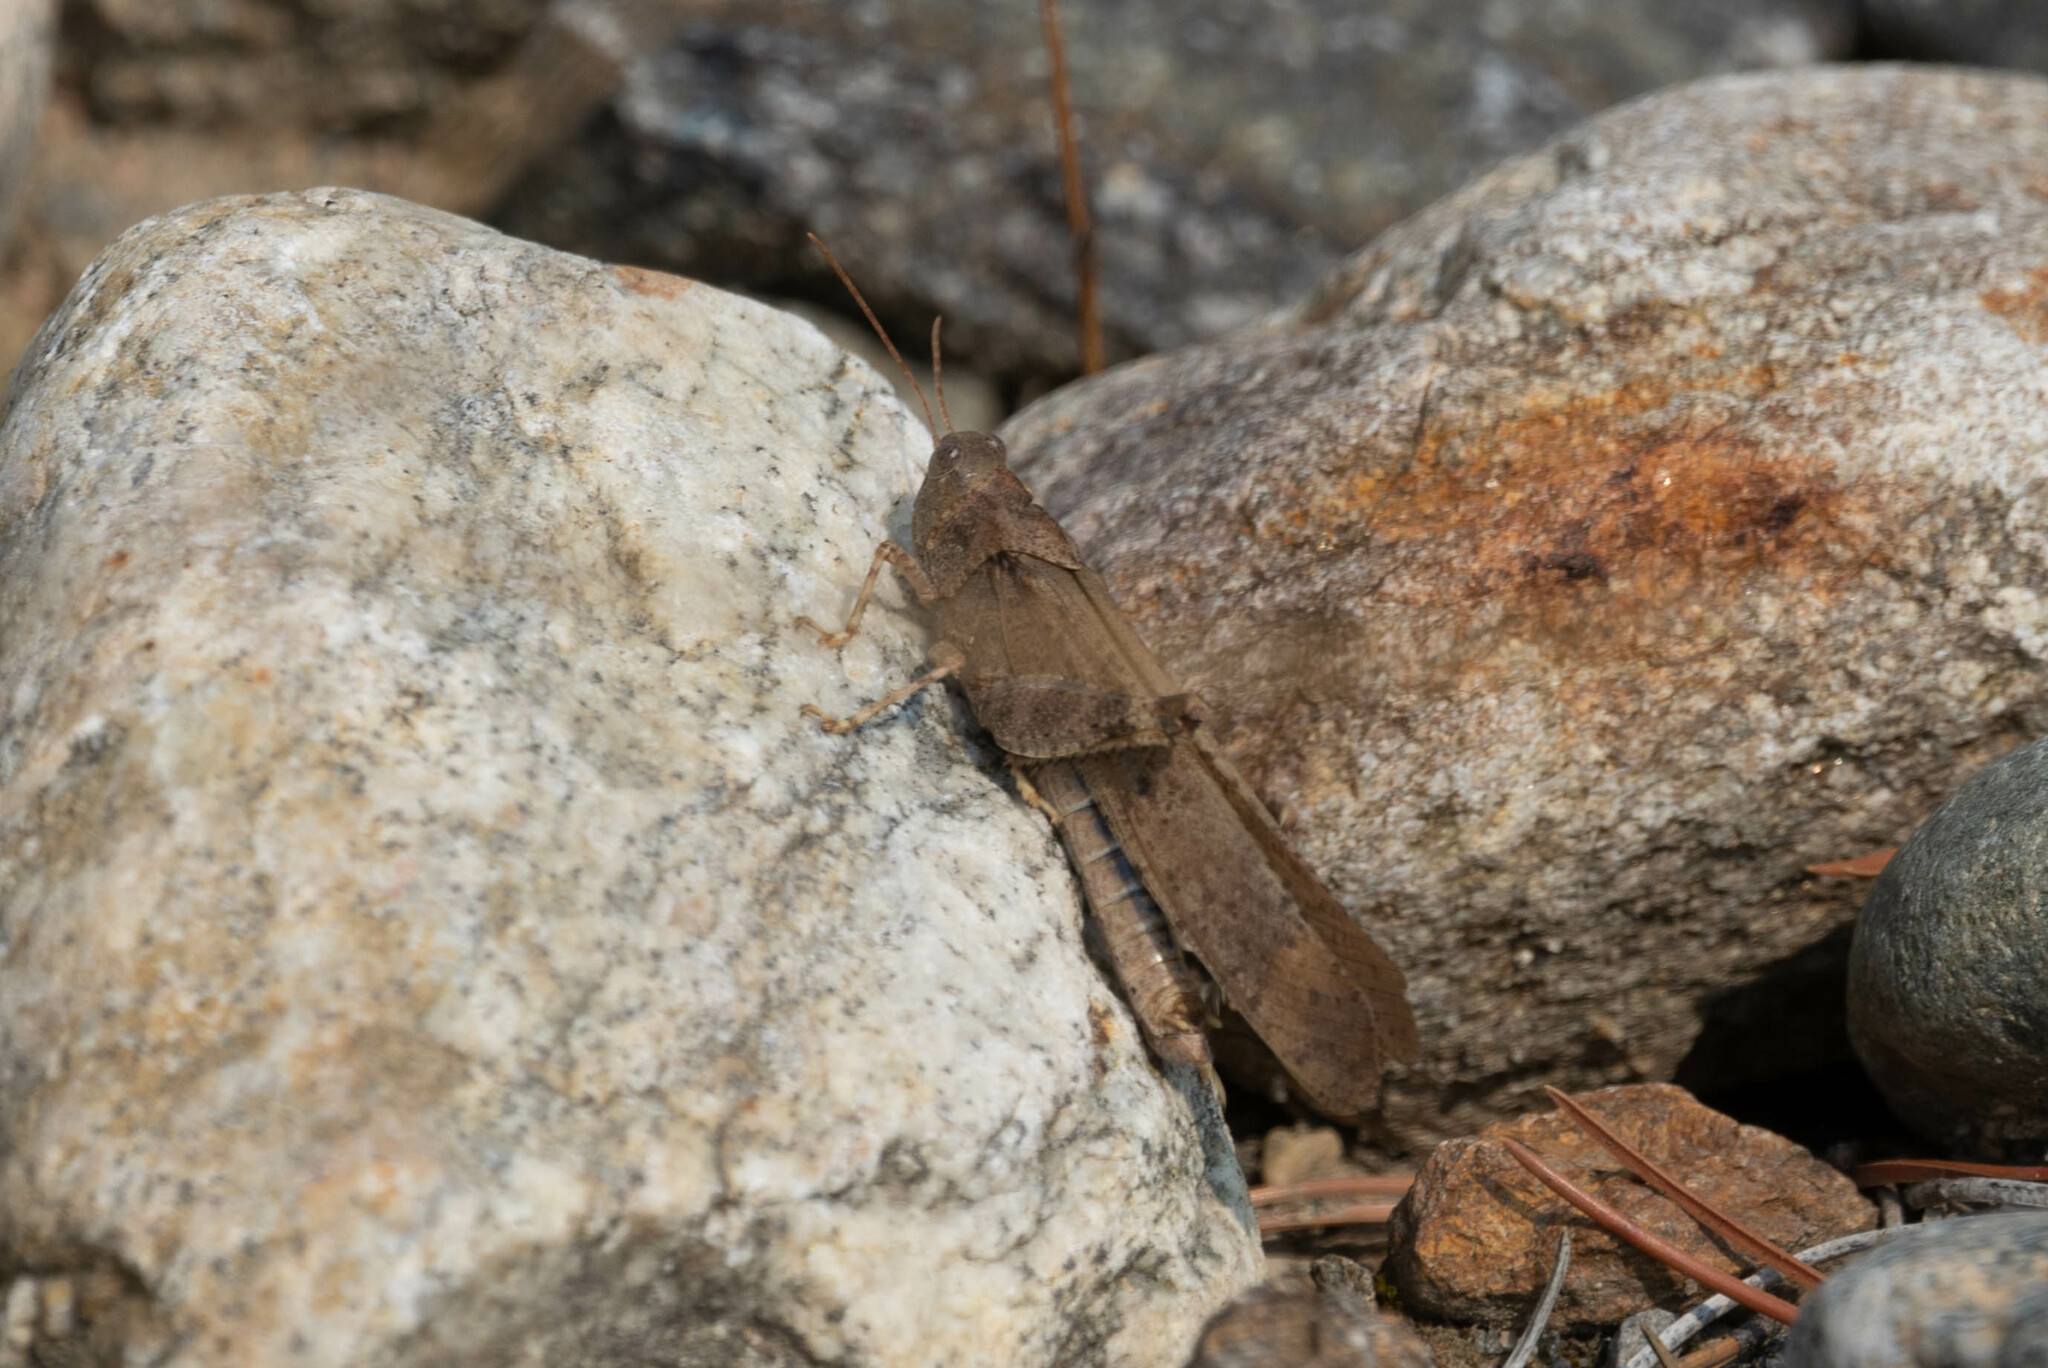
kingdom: Animalia
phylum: Arthropoda
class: Insecta
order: Orthoptera
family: Acrididae
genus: Dissosteira
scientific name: Dissosteira carolina
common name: Carolina grasshopper
